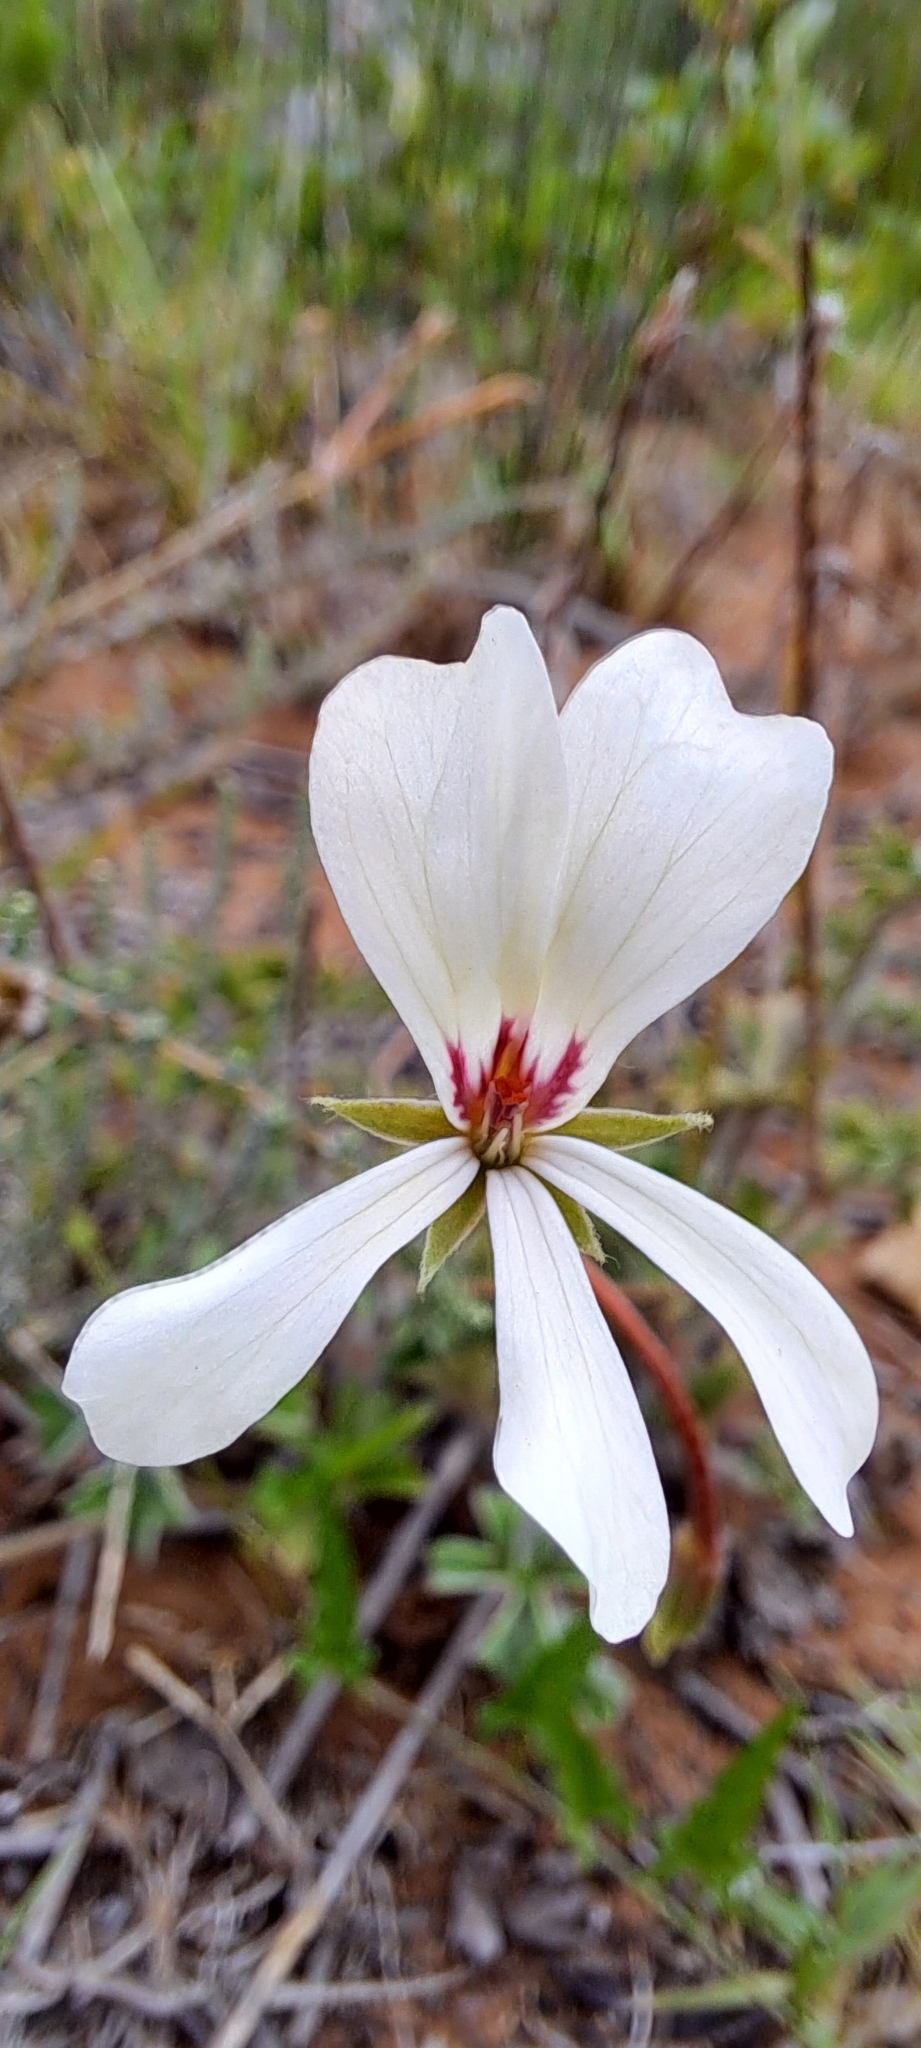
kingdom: Plantae
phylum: Tracheophyta
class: Magnoliopsida
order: Geraniales
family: Geraniaceae
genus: Pelargonium
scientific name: Pelargonium alchemilloides
